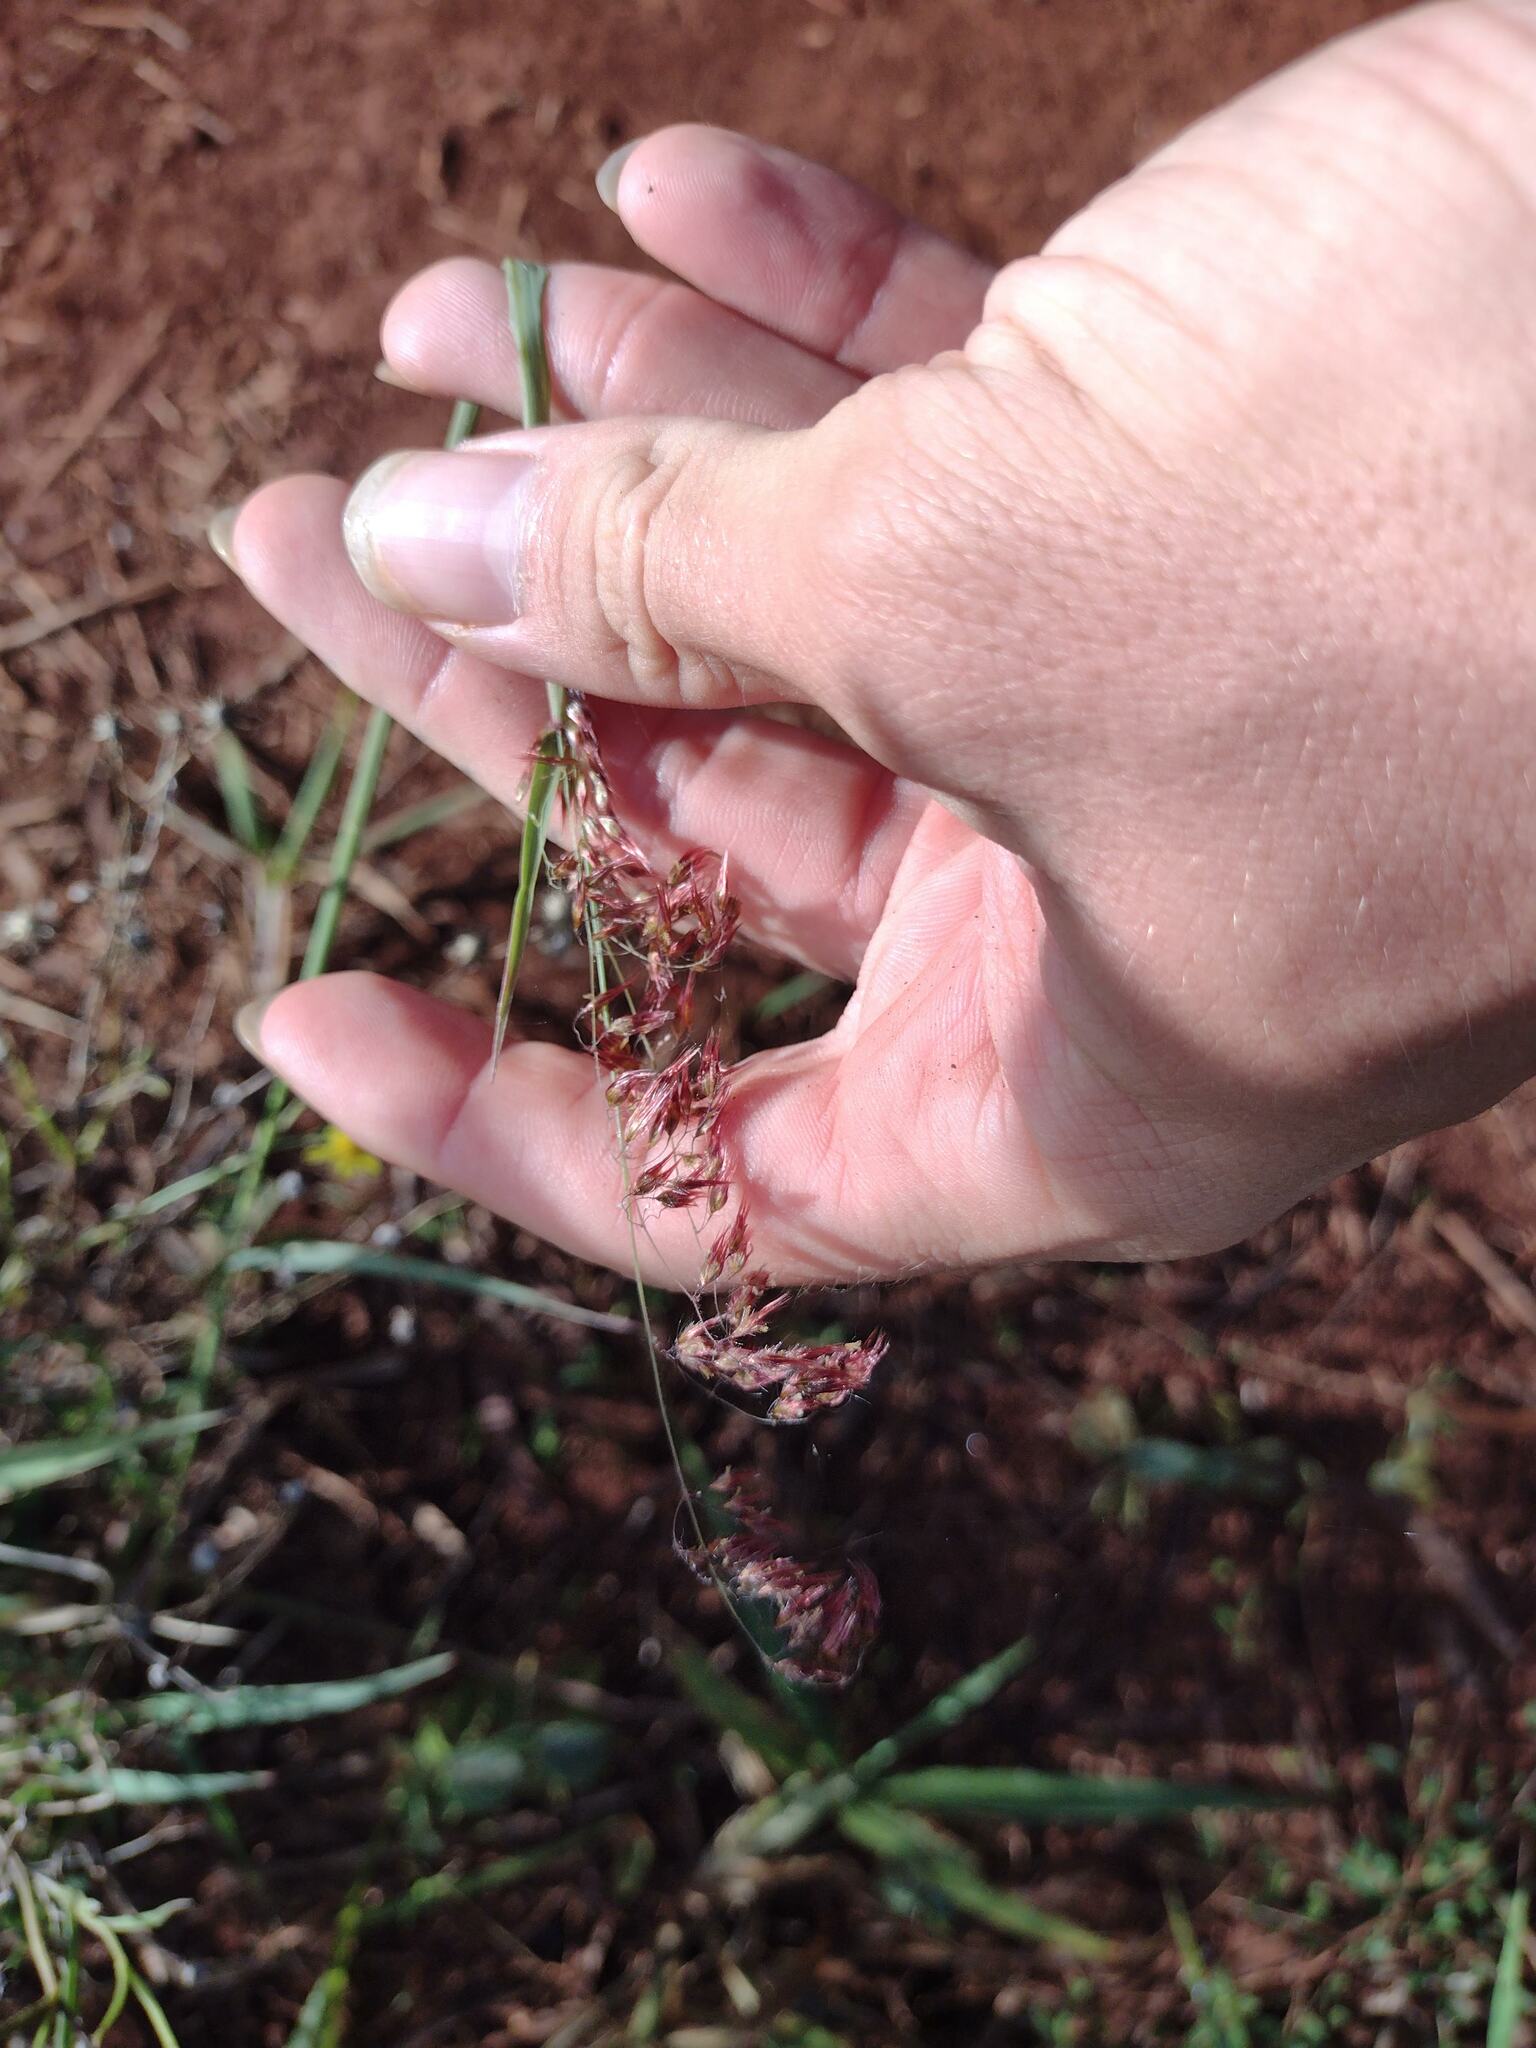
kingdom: Plantae
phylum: Tracheophyta
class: Liliopsida
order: Poales
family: Poaceae
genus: Melinis
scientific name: Melinis repens
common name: Rose natal grass
